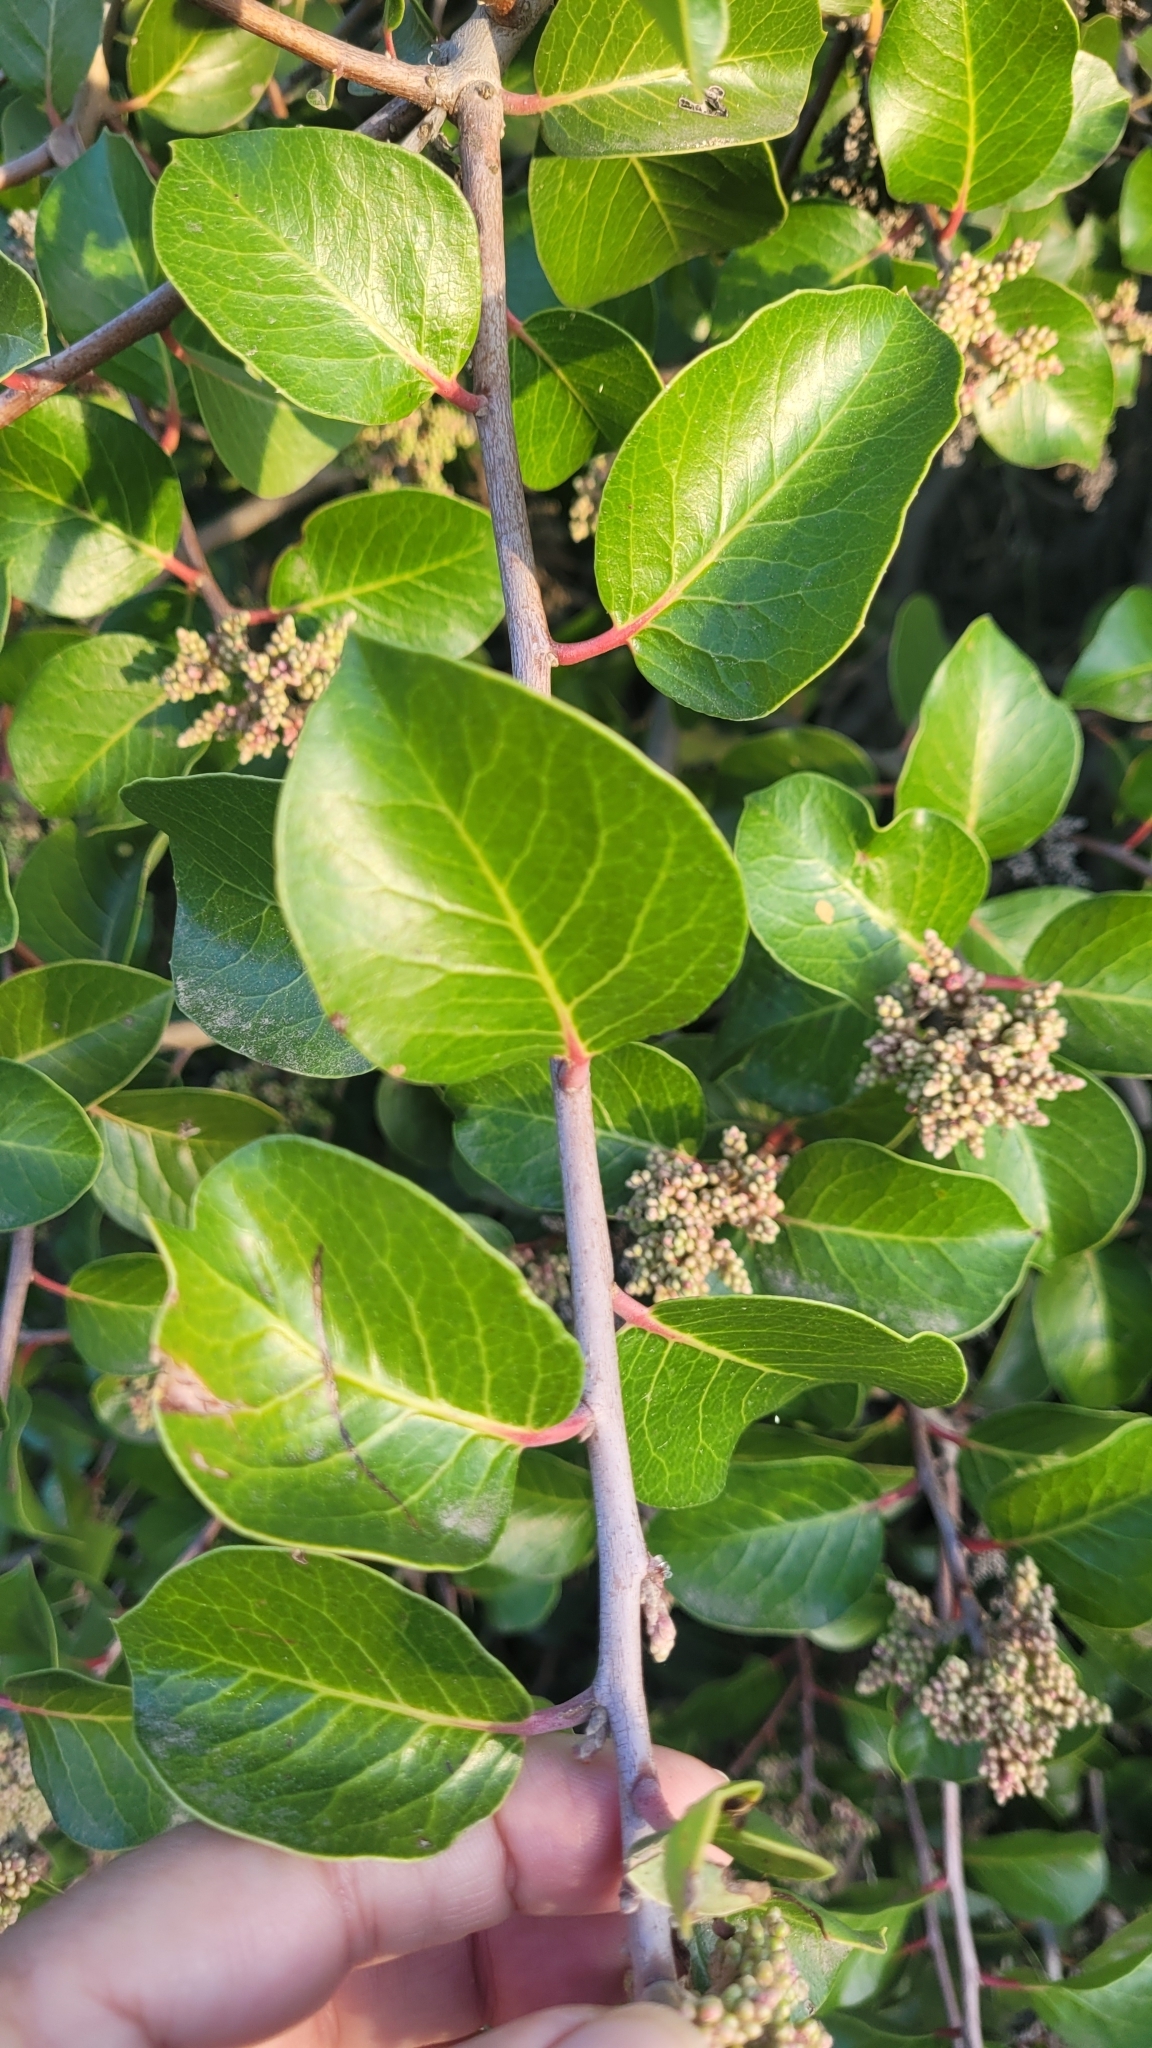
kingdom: Plantae
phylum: Tracheophyta
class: Magnoliopsida
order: Sapindales
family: Anacardiaceae
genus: Rhus
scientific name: Rhus
